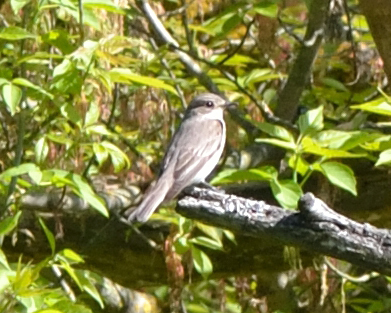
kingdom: Animalia
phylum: Chordata
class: Aves
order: Passeriformes
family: Muscicapidae
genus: Muscicapa
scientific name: Muscicapa striata
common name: Spotted flycatcher
